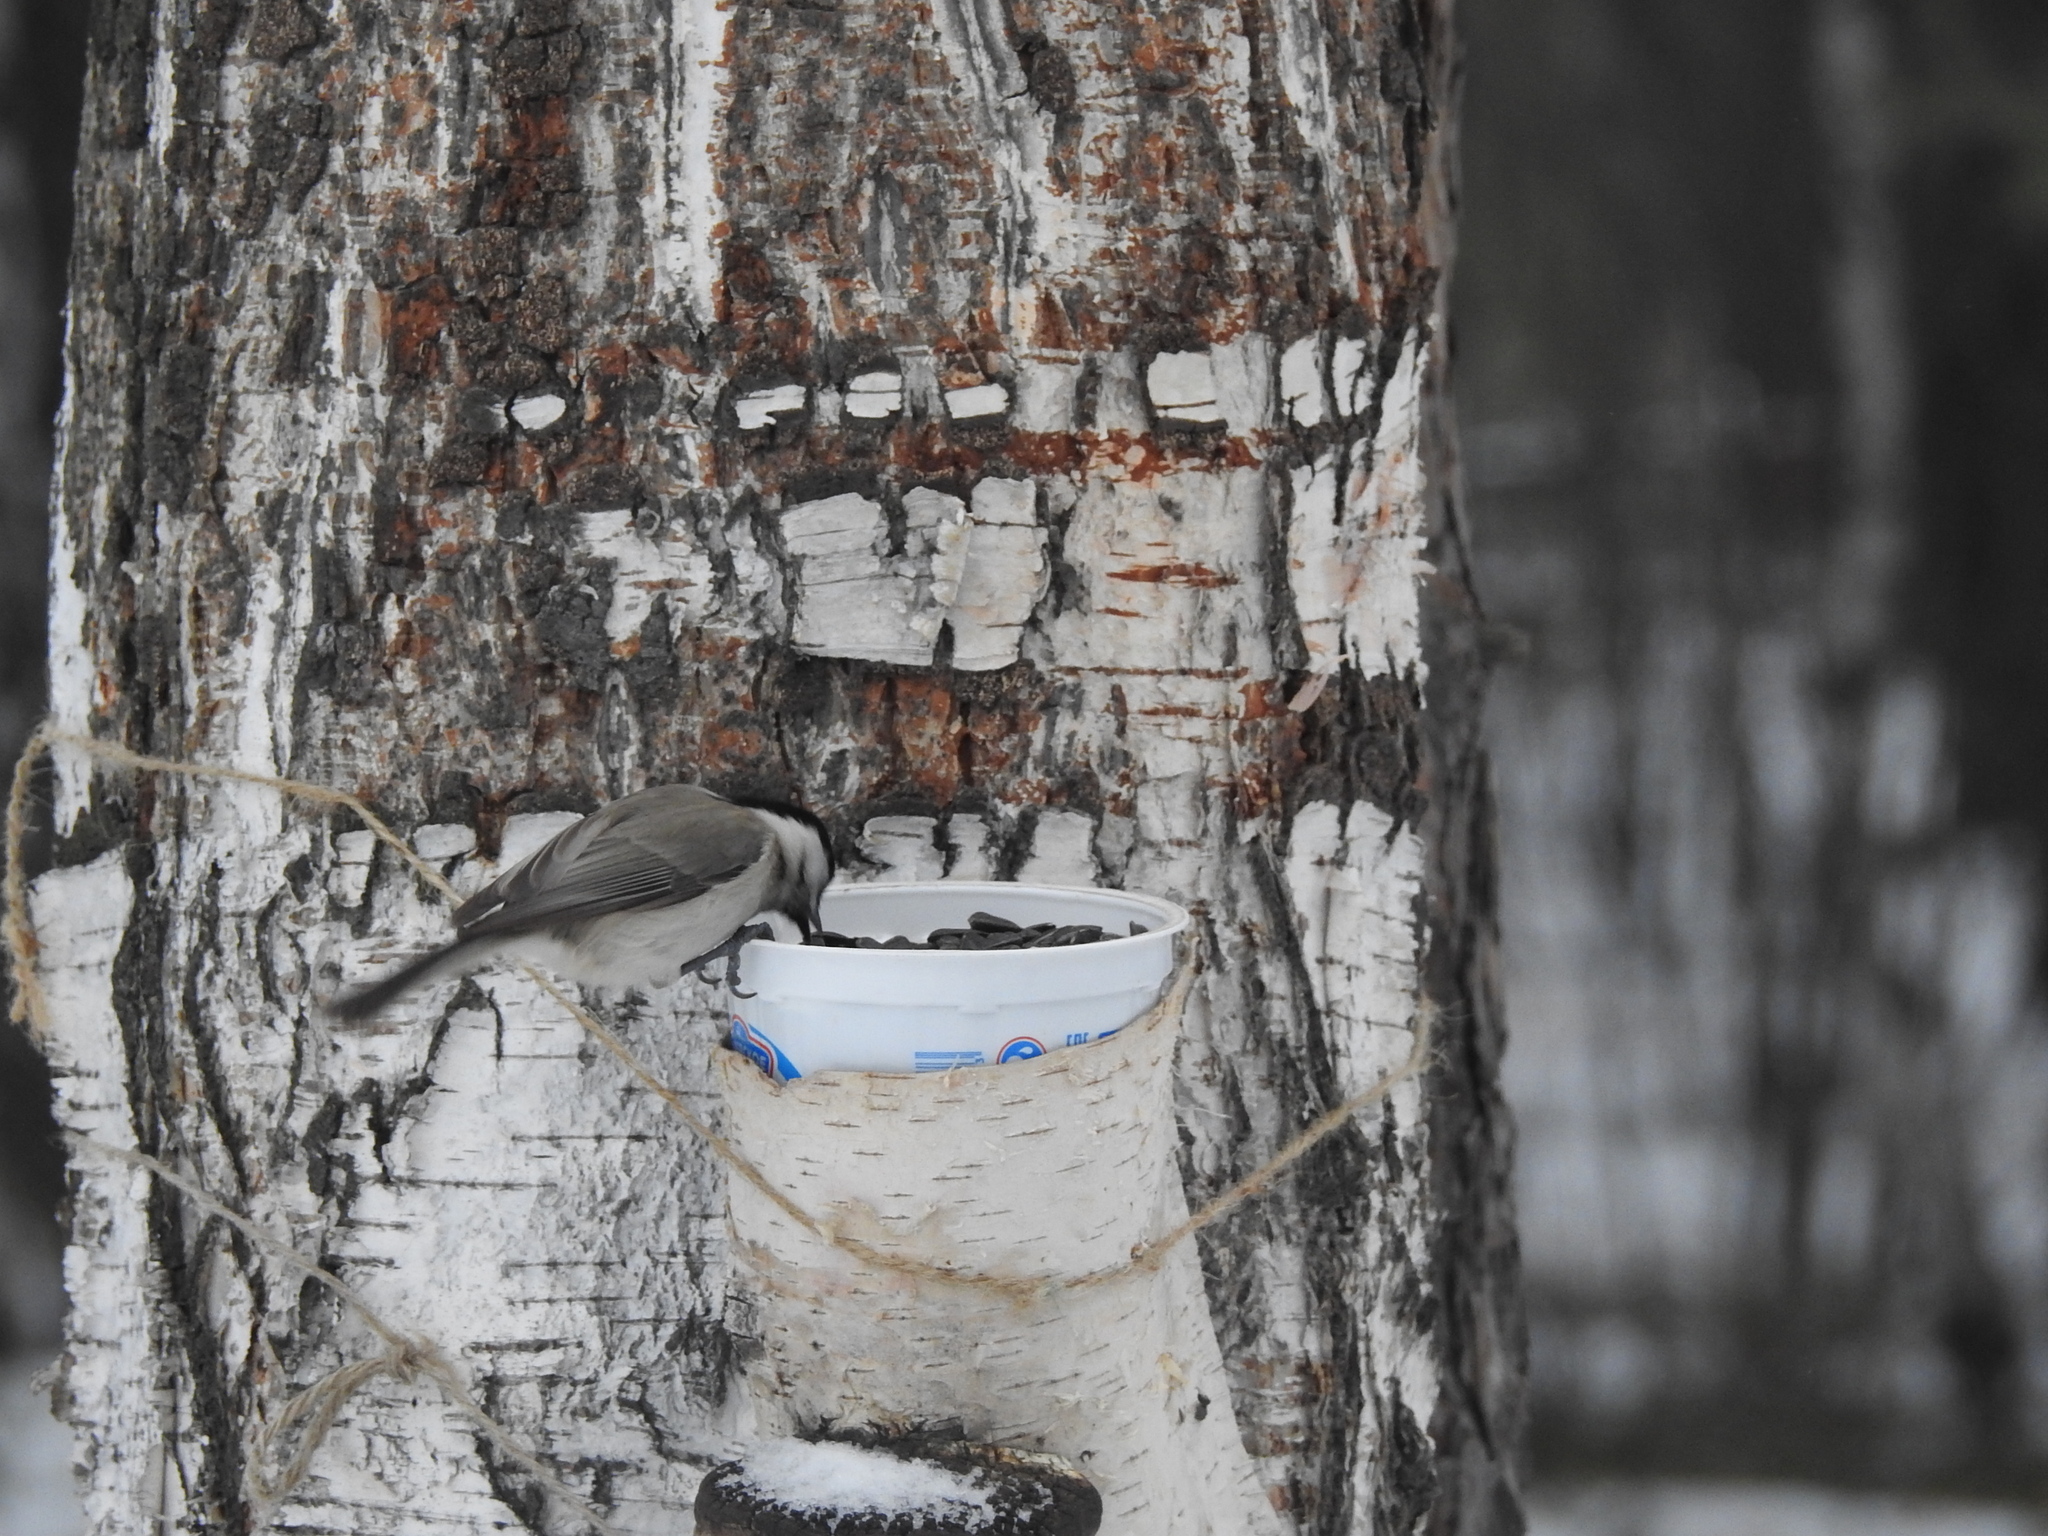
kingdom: Animalia
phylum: Chordata
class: Aves
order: Passeriformes
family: Paridae
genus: Poecile
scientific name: Poecile palustris
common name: Marsh tit
